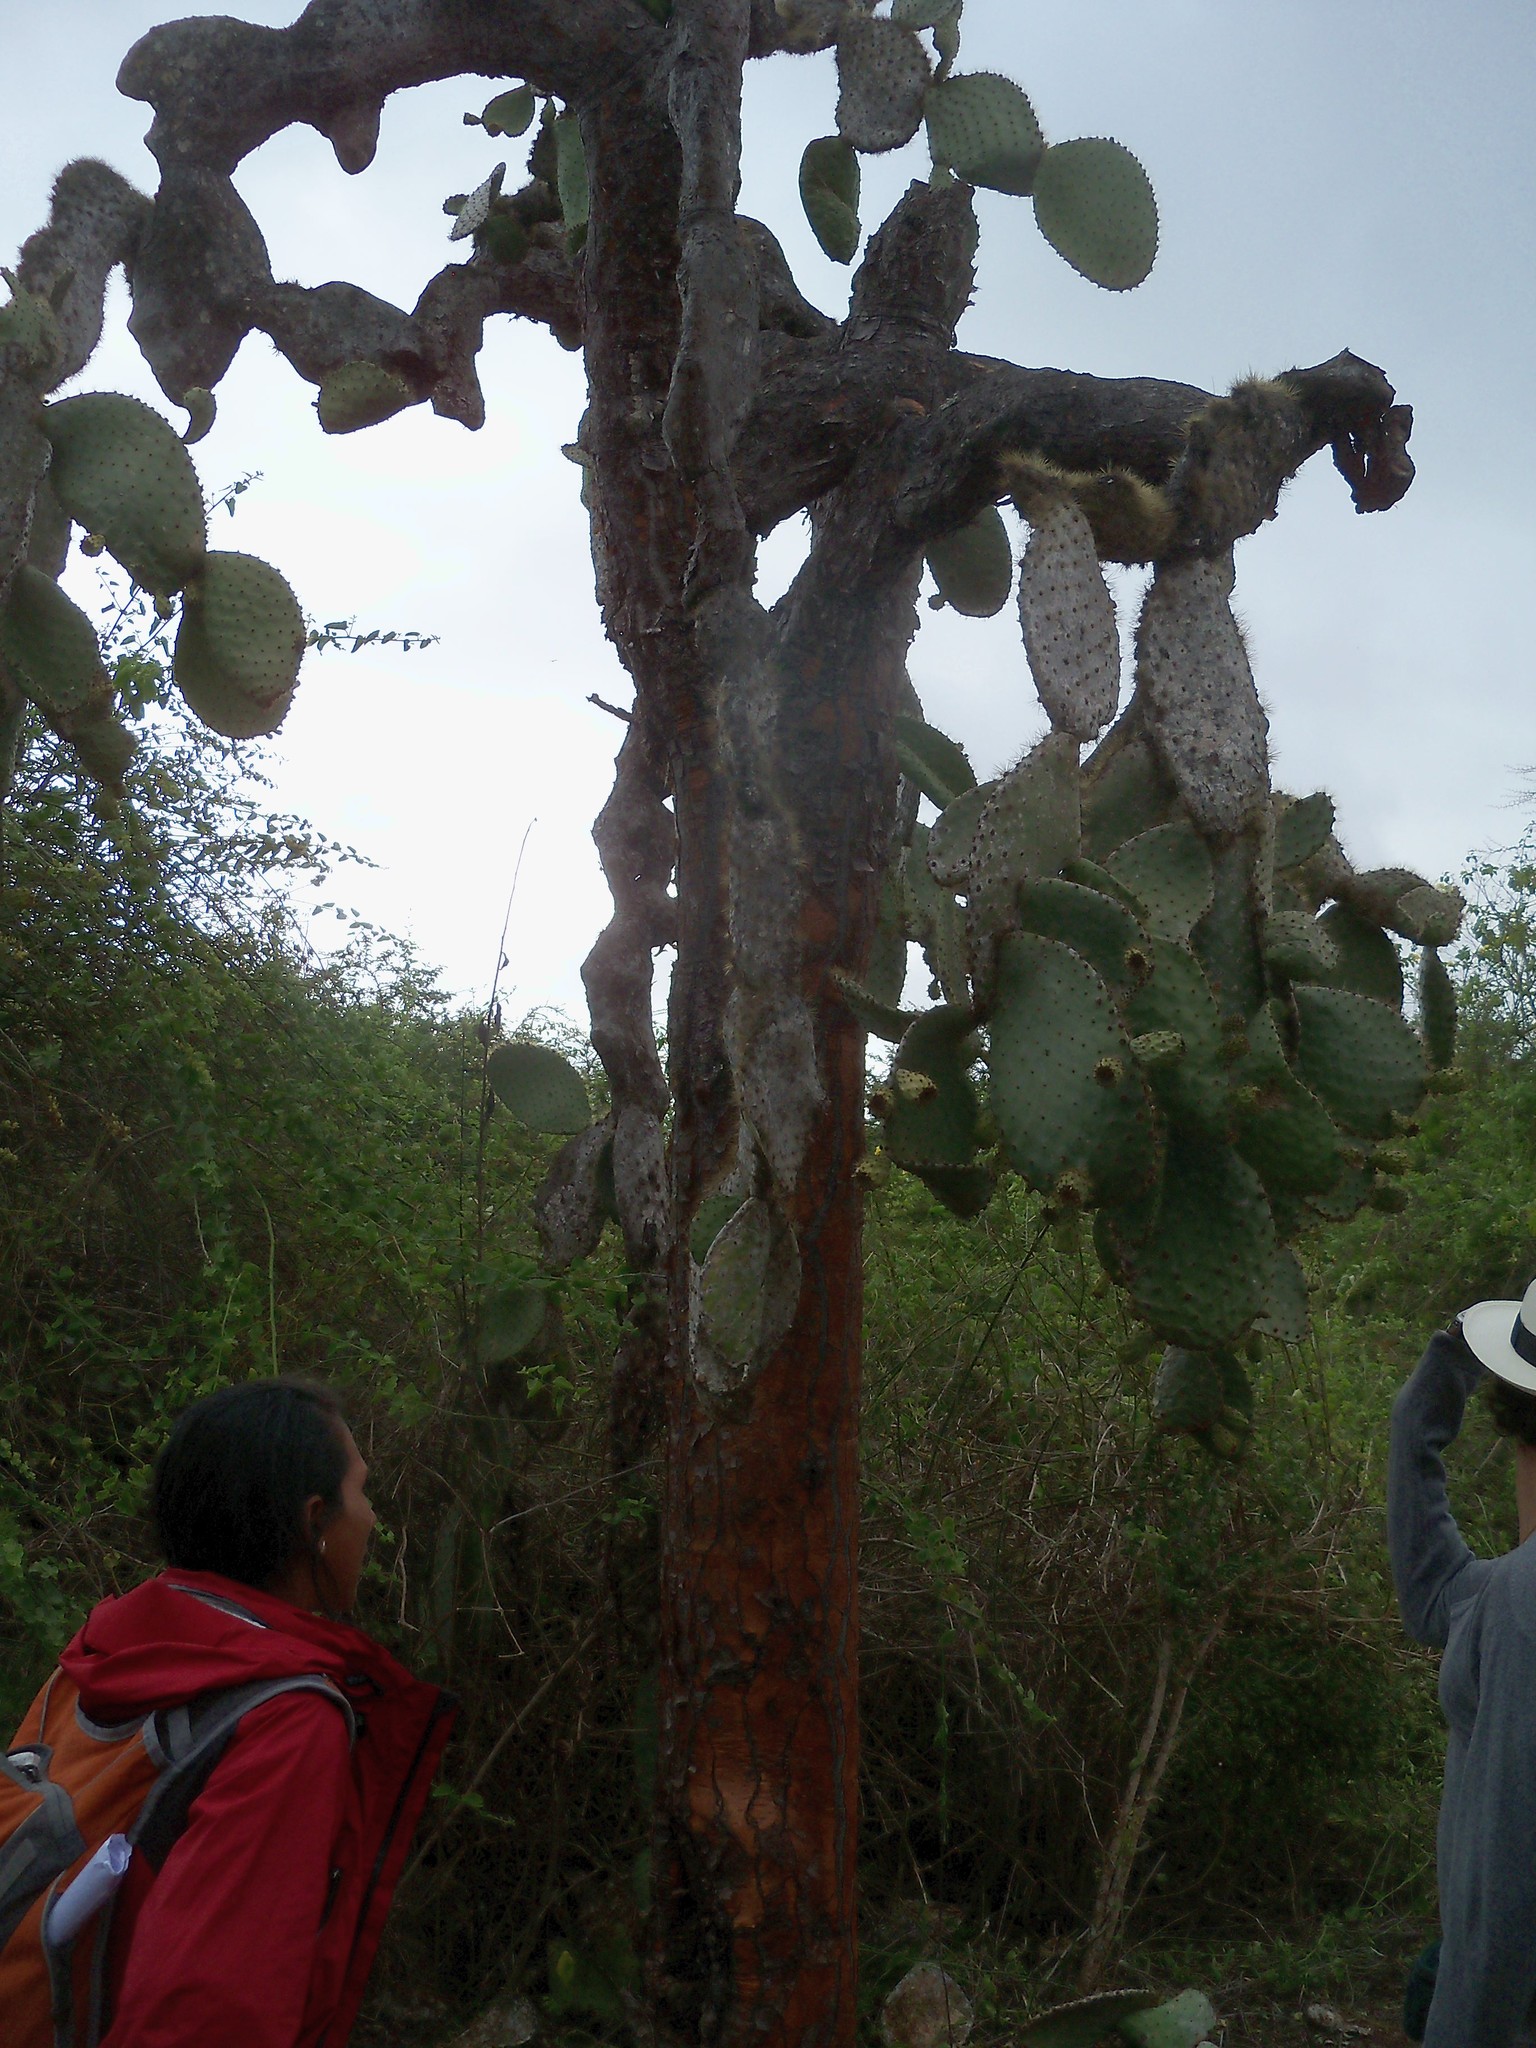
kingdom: Plantae
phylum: Tracheophyta
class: Magnoliopsida
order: Caryophyllales
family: Cactaceae
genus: Opuntia
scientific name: Opuntia galapageia
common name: Galápagos prickly pear
